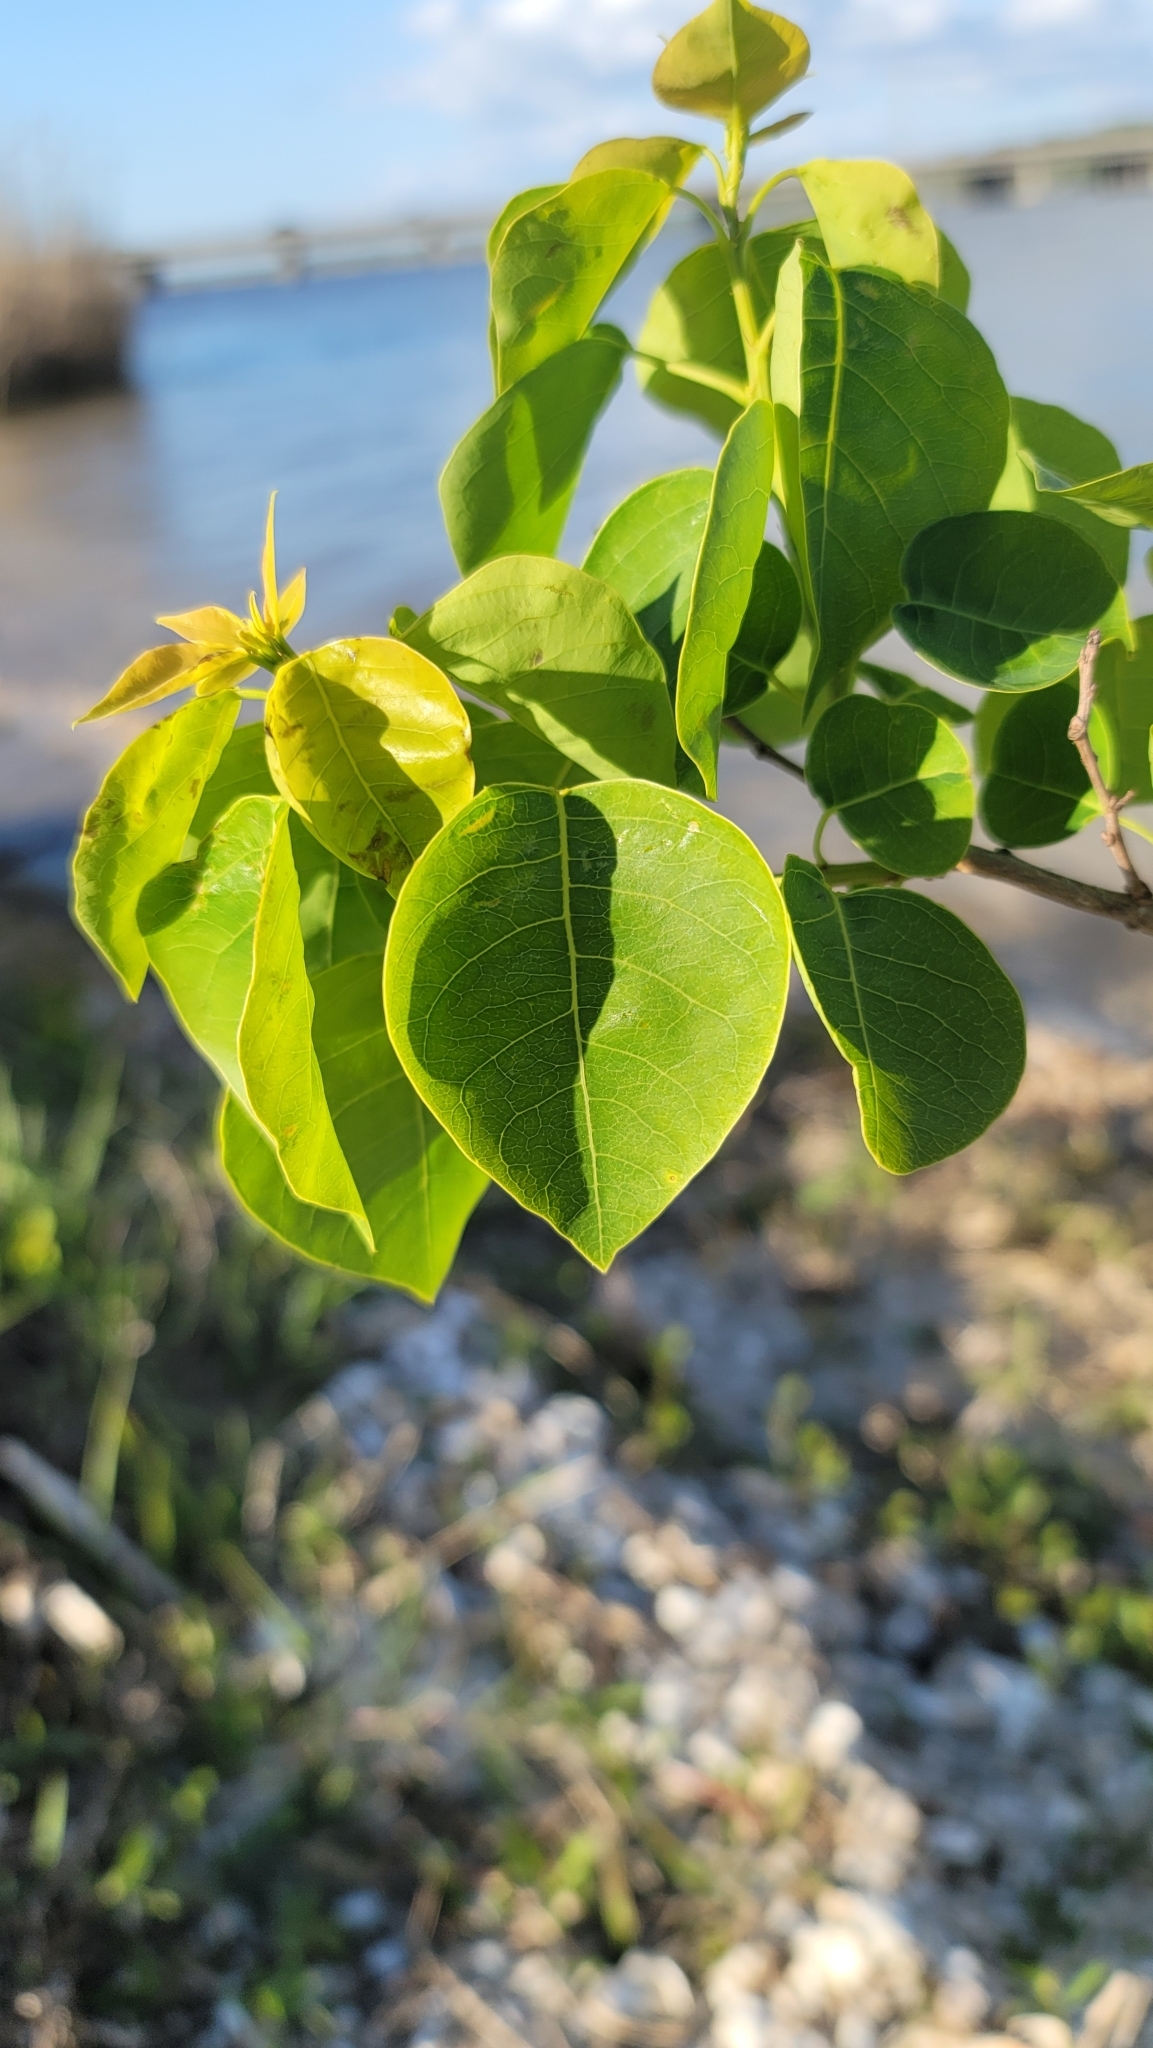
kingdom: Plantae
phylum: Tracheophyta
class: Magnoliopsida
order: Malpighiales
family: Euphorbiaceae
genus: Triadica
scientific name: Triadica sebifera
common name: Chinese tallow
